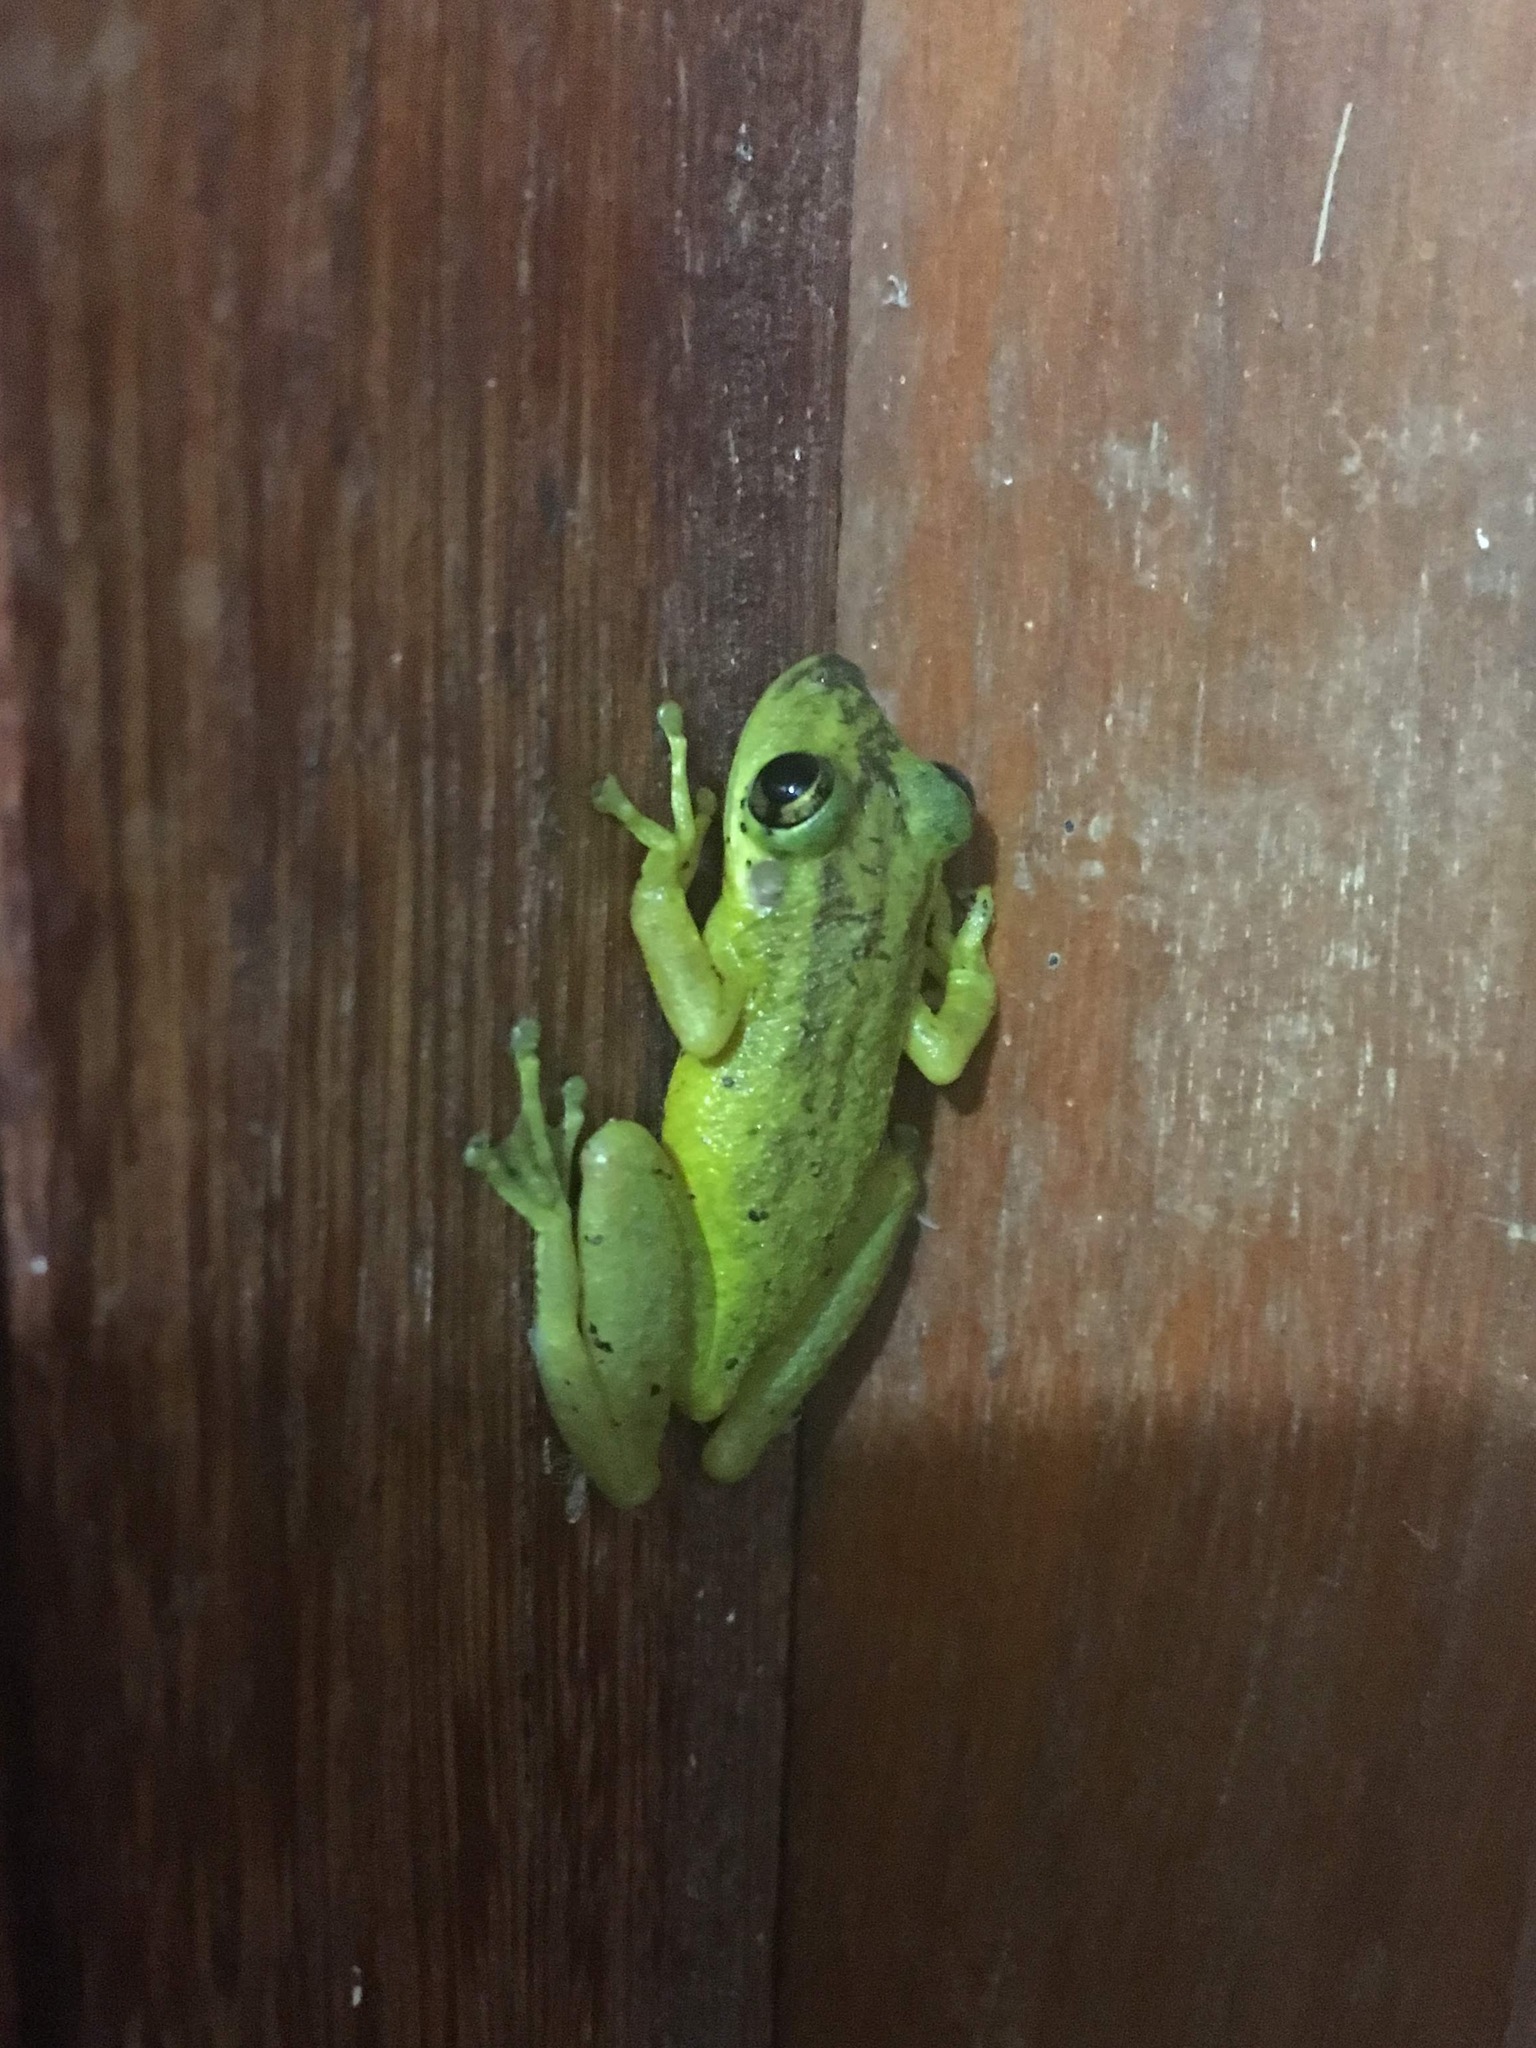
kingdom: Animalia
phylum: Chordata
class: Amphibia
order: Anura
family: Hylidae
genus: Scinax
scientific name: Scinax ruber
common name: Red snouted treefrog
